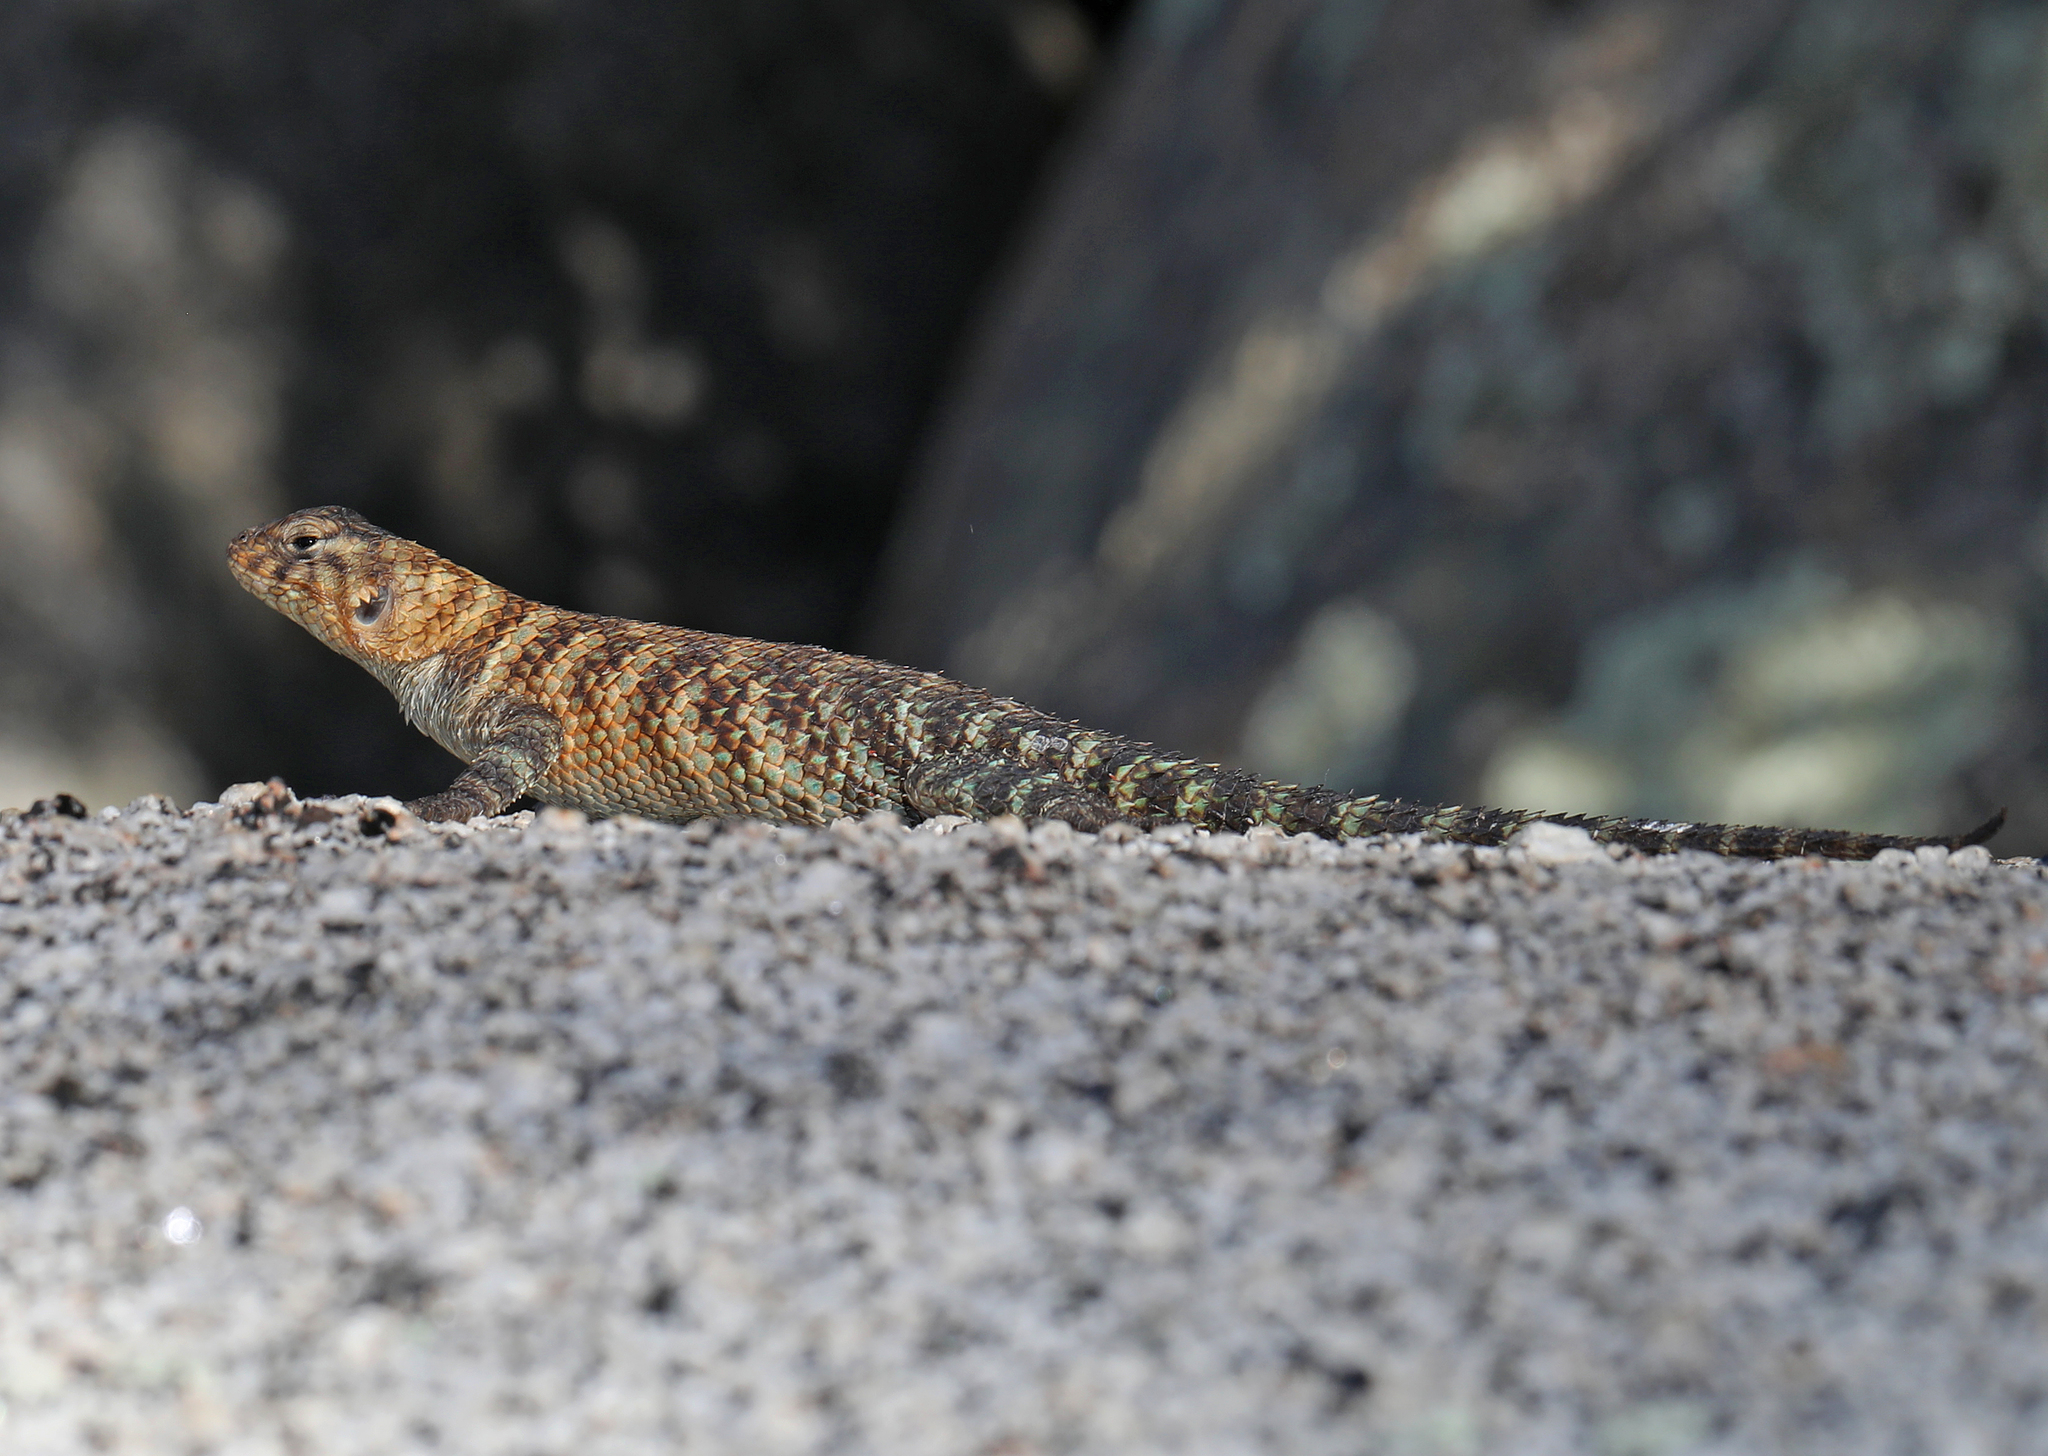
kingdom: Animalia
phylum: Chordata
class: Squamata
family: Phrynosomatidae
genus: Sceloporus
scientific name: Sceloporus orcutti
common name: Granite spiny lizard
